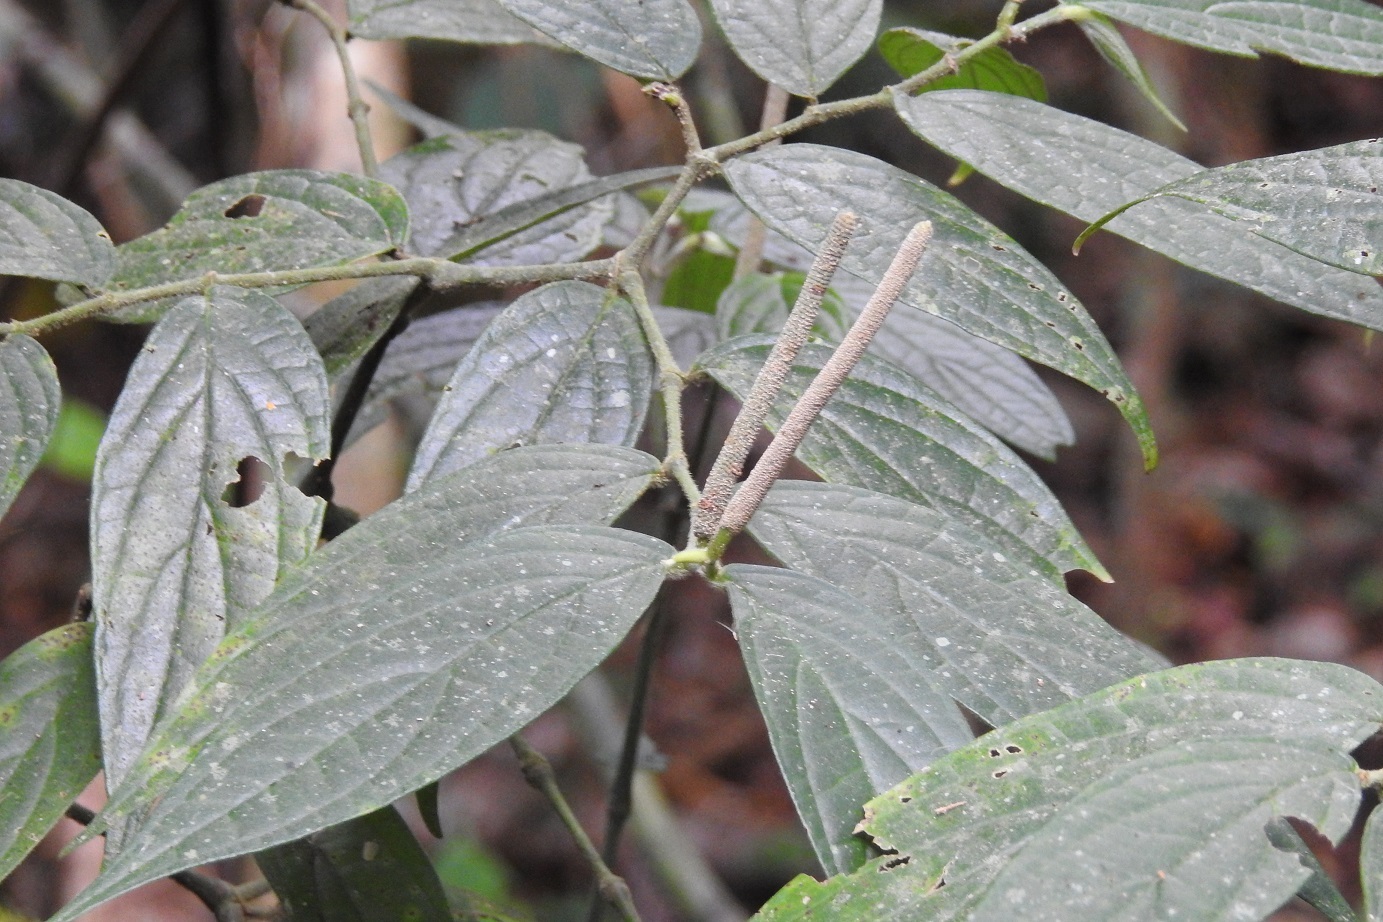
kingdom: Plantae
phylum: Tracheophyta
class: Magnoliopsida
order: Piperales
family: Piperaceae
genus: Piper
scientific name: Piper pseudofuligineum
